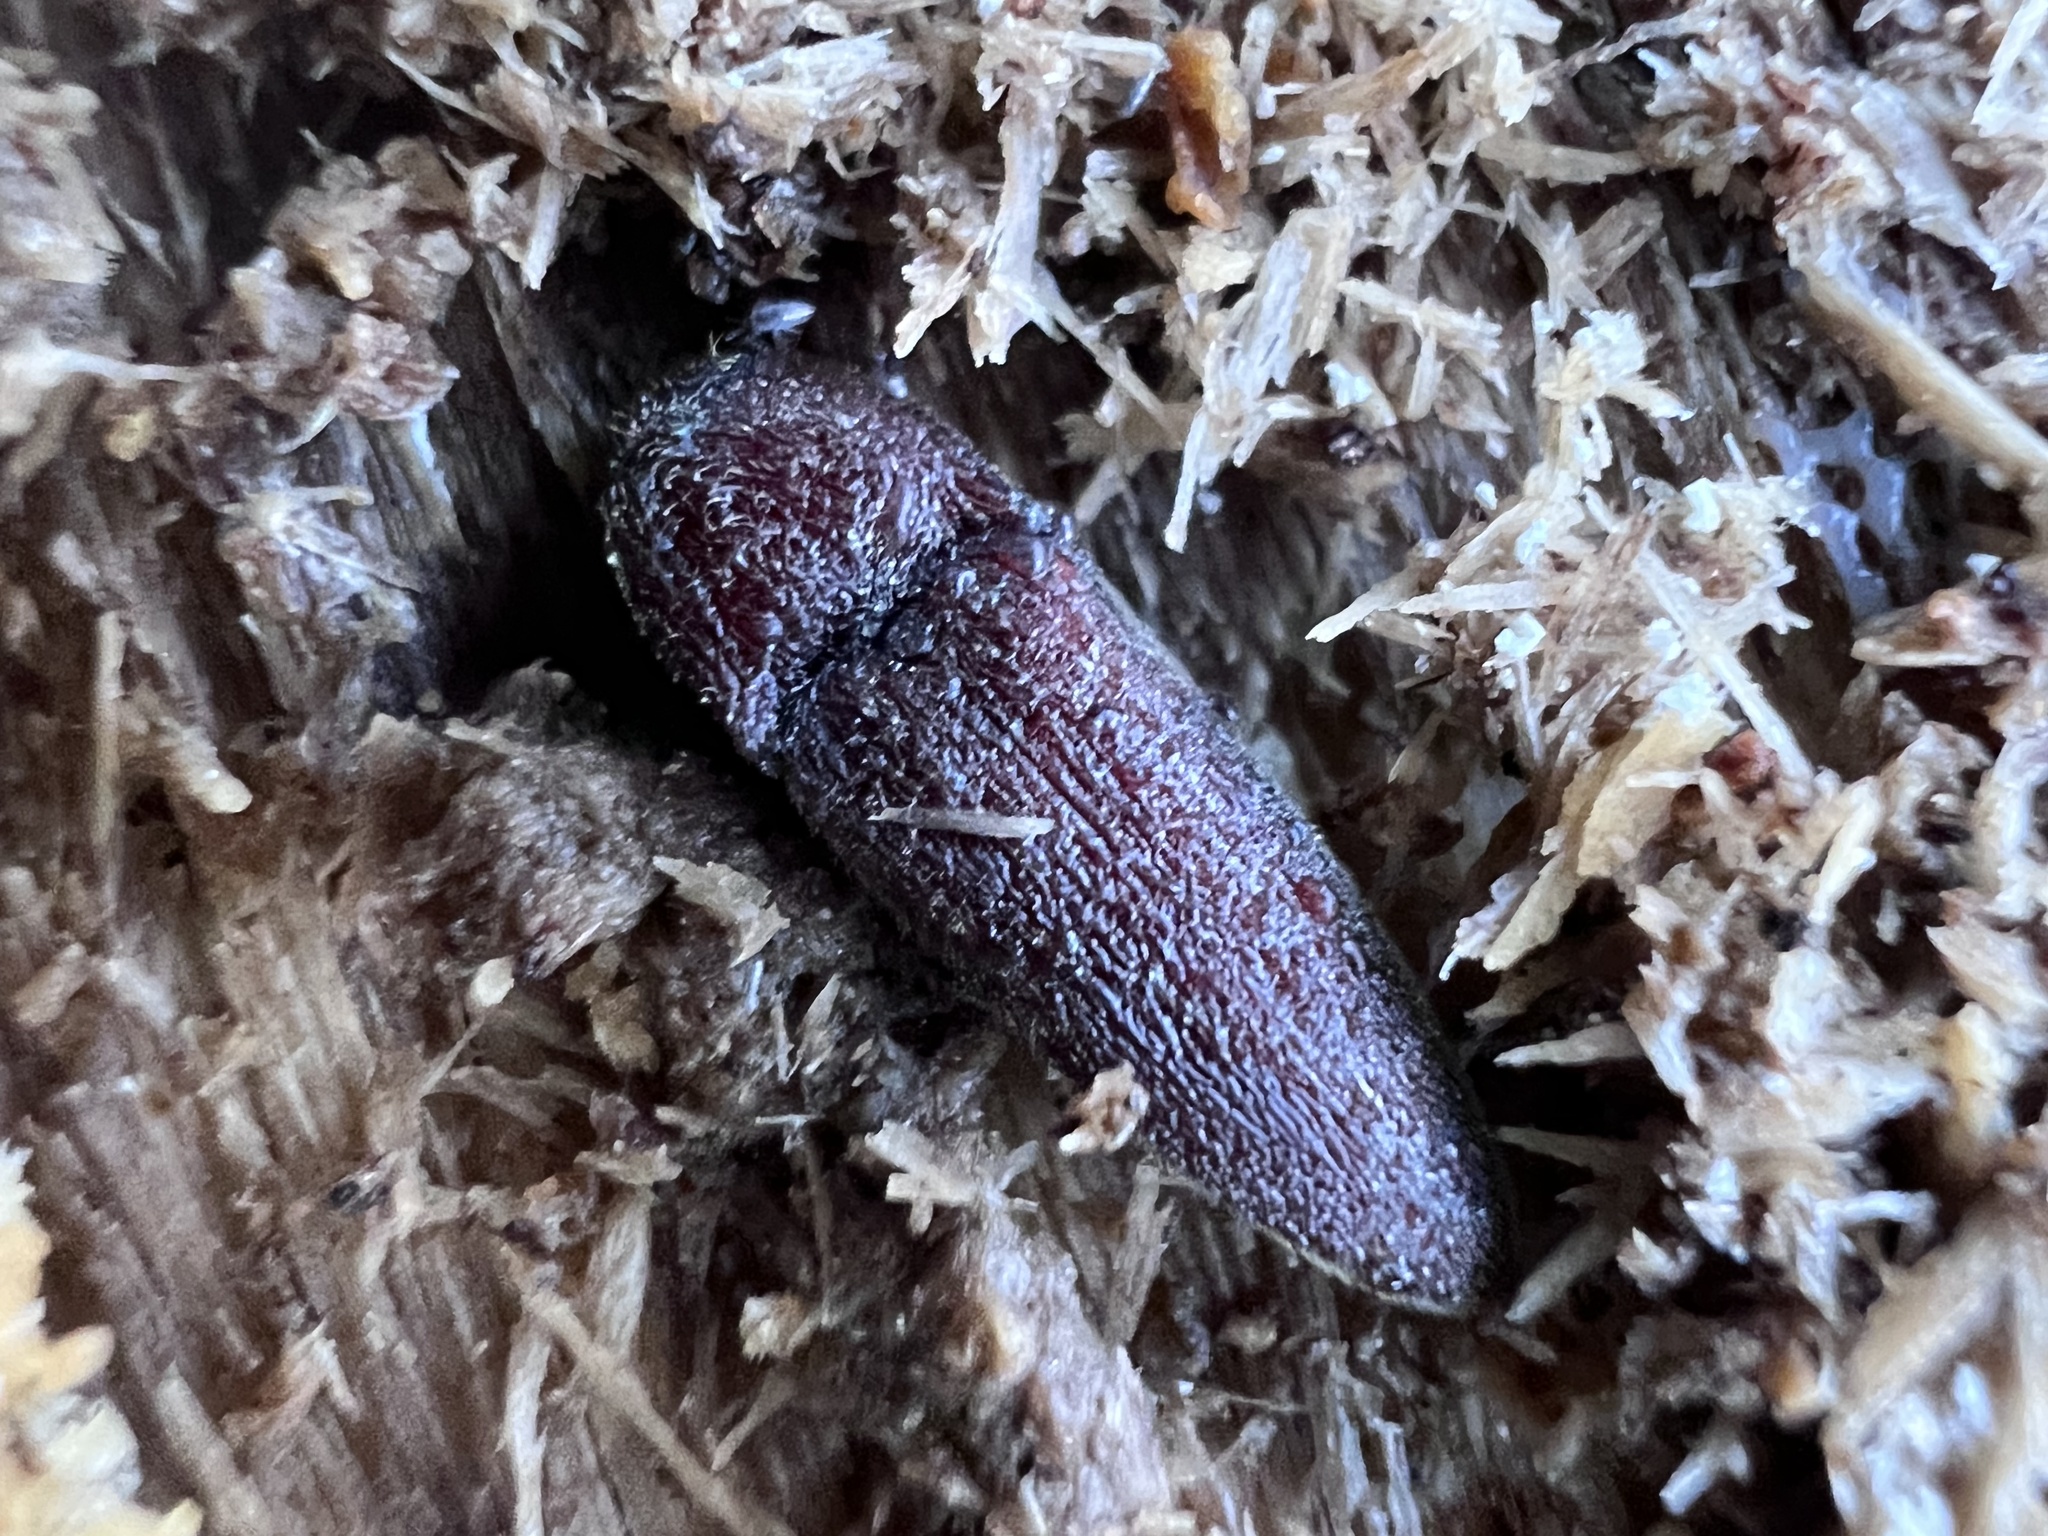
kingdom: Animalia
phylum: Arthropoda
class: Insecta
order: Coleoptera
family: Elateridae
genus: Melanotus
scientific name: Melanotus
